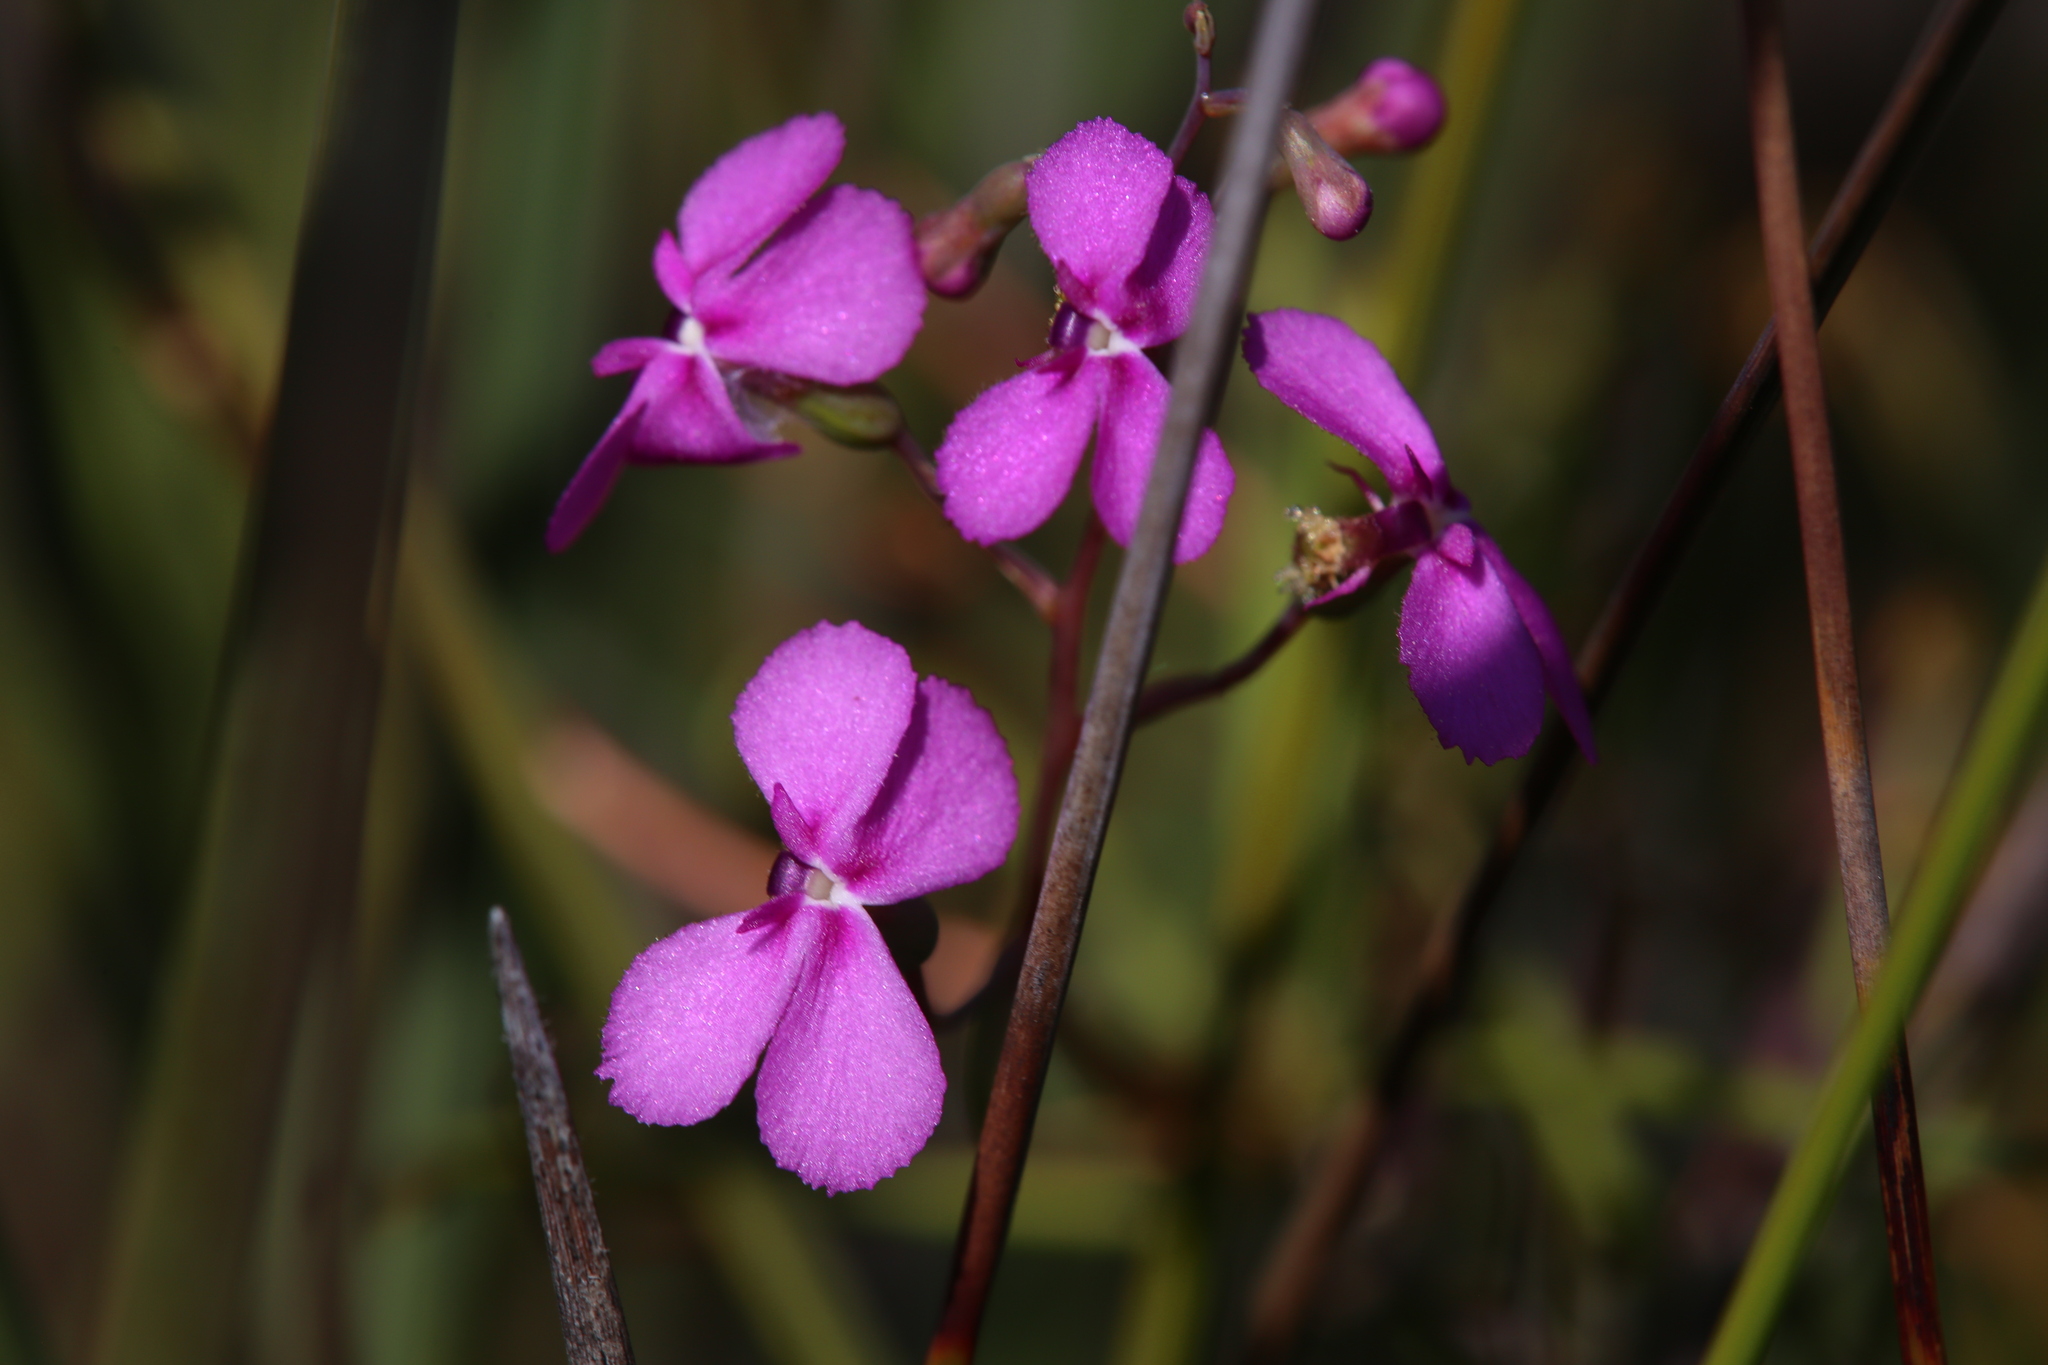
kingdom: Plantae
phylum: Tracheophyta
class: Magnoliopsida
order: Asterales
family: Stylidiaceae
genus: Stylidium
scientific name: Stylidium scandens
